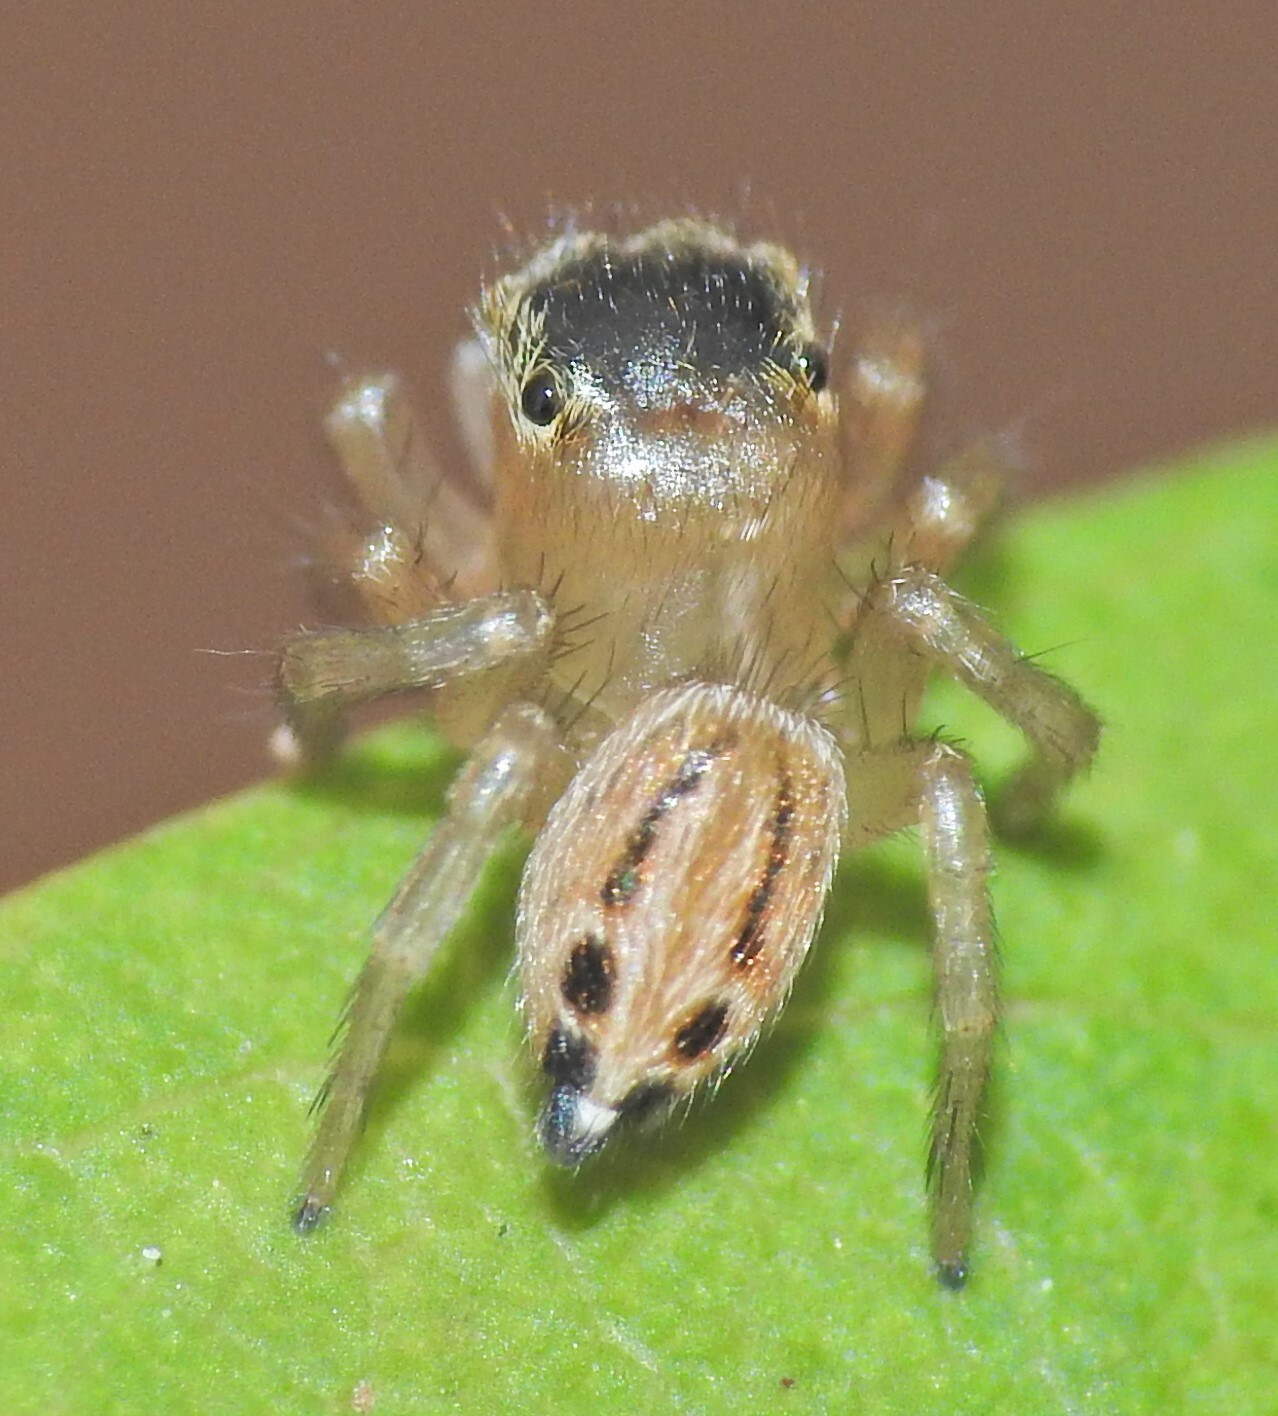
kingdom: Animalia
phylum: Arthropoda
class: Arachnida
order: Araneae
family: Salticidae
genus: Maratus
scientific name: Maratus scutulatus
